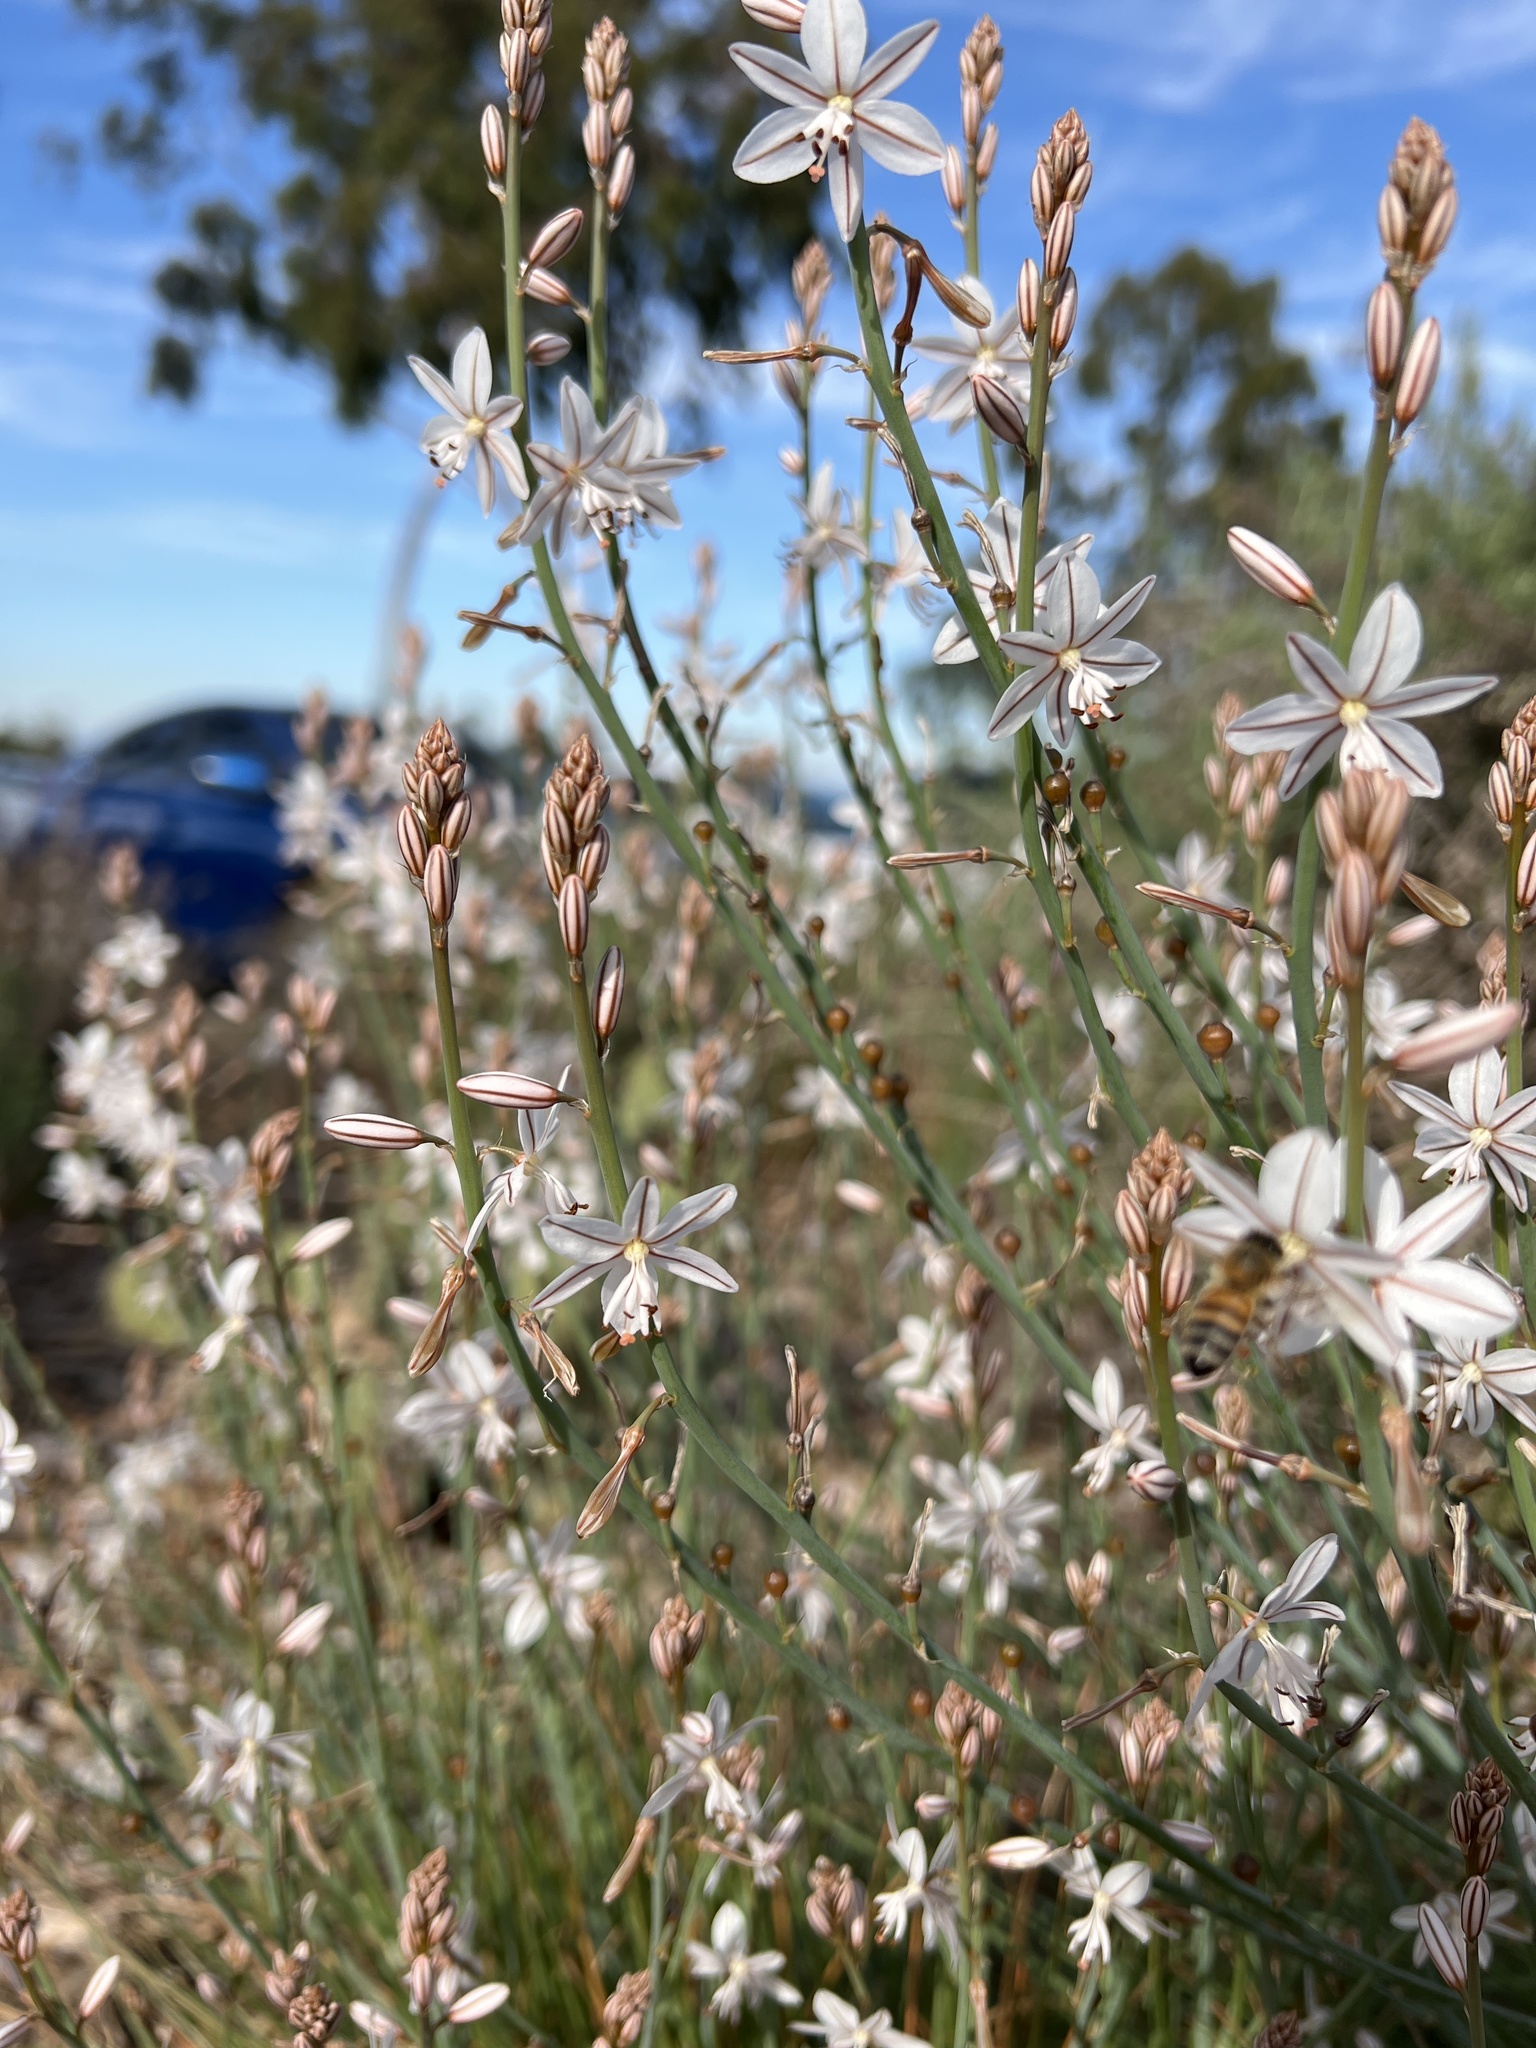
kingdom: Plantae
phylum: Tracheophyta
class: Liliopsida
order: Asparagales
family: Asphodelaceae
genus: Asphodelus
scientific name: Asphodelus fistulosus
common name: Onionweed
